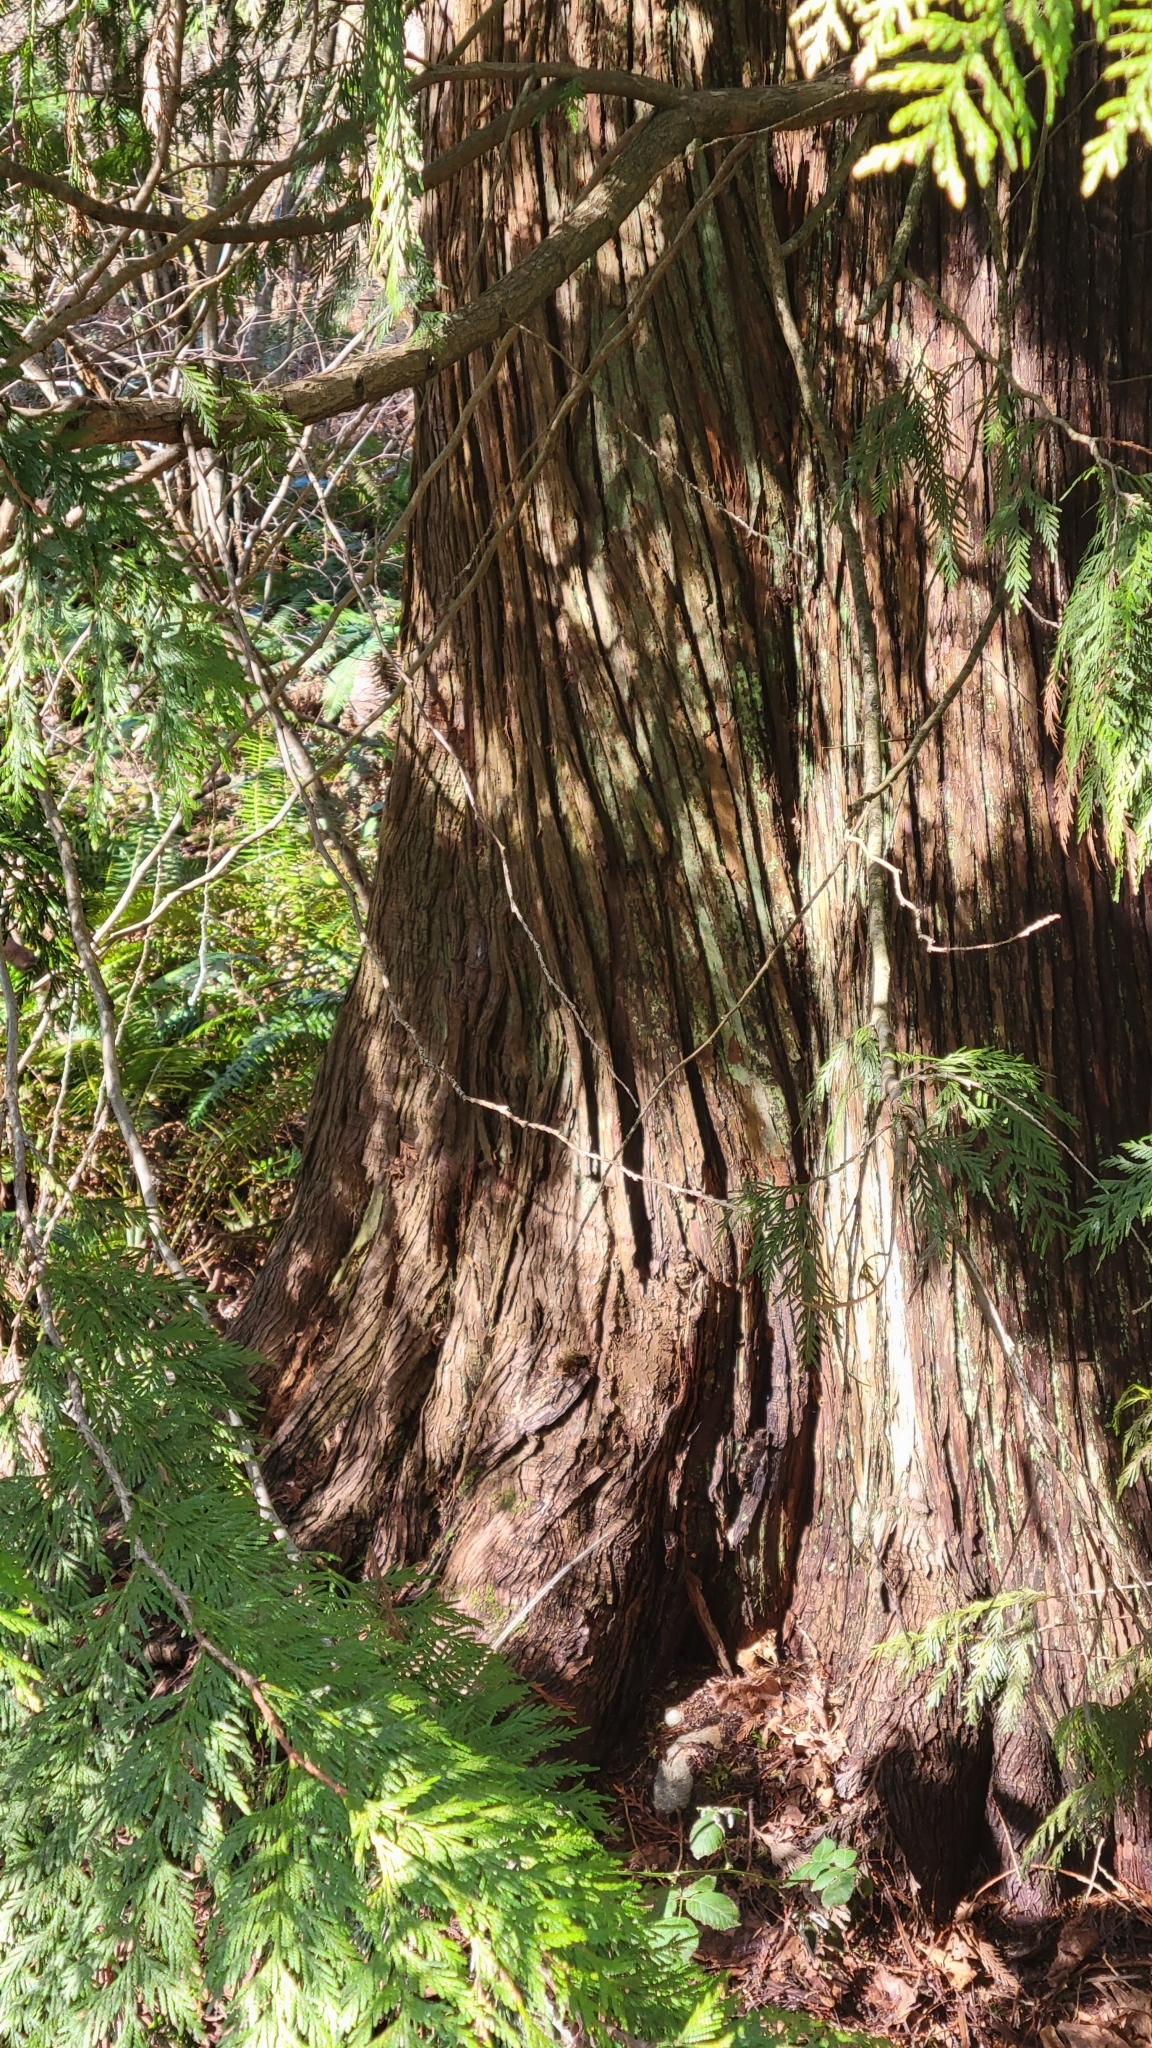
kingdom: Plantae
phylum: Tracheophyta
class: Pinopsida
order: Pinales
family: Cupressaceae
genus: Thuja
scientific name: Thuja plicata
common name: Western red-cedar
